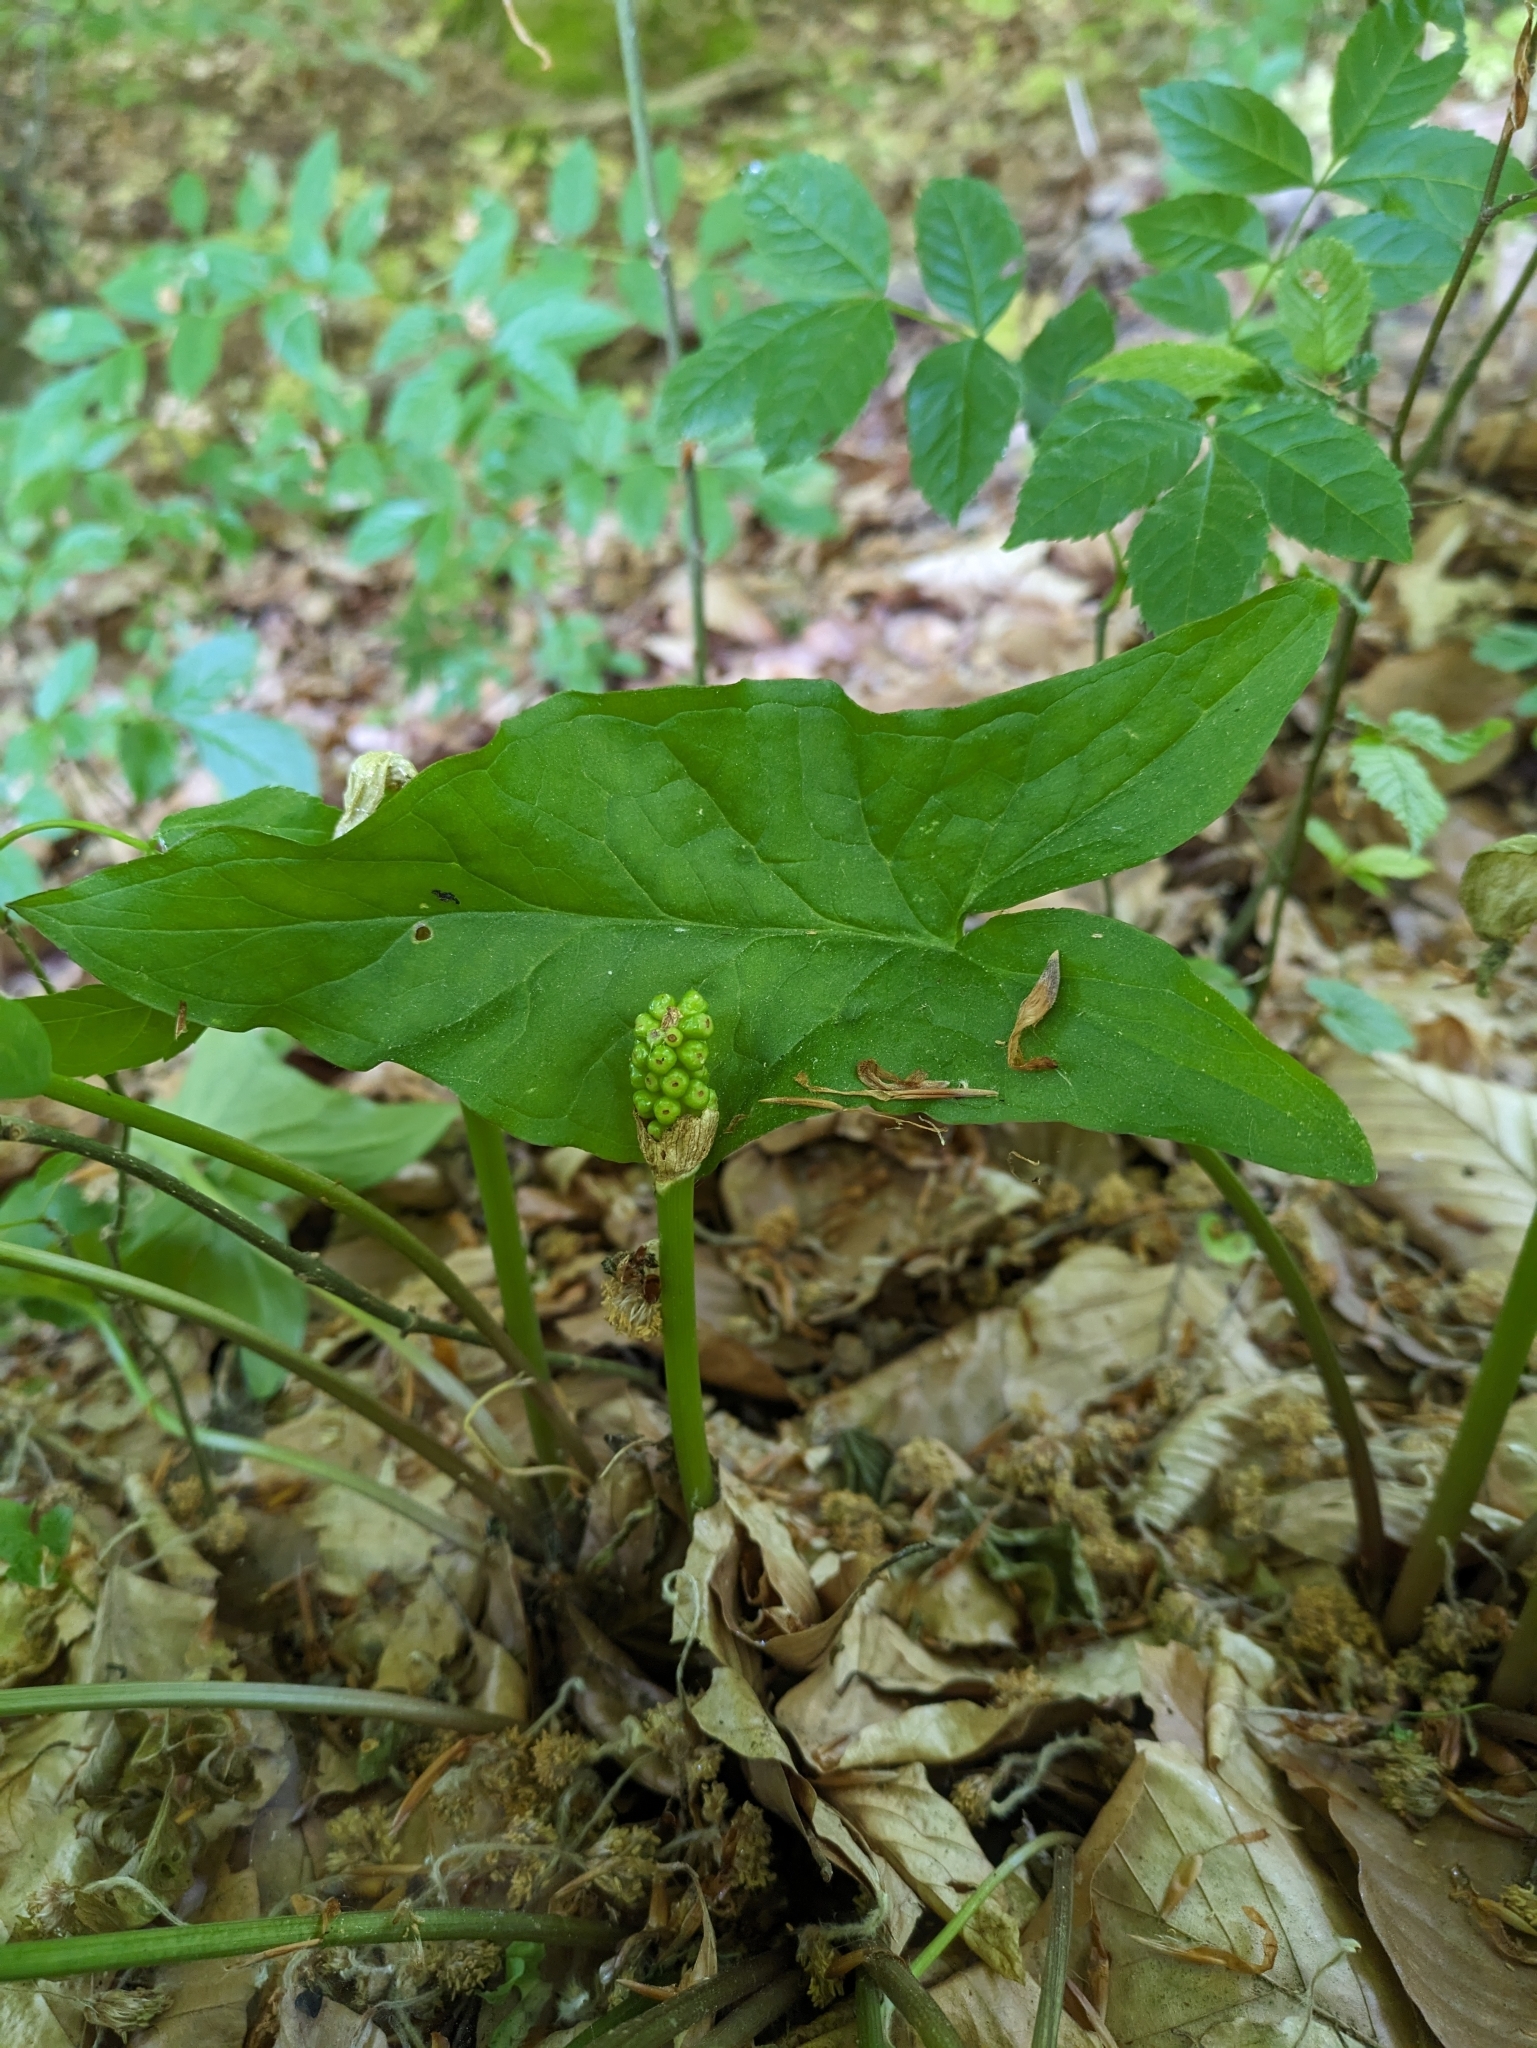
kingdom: Plantae
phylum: Tracheophyta
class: Liliopsida
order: Alismatales
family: Araceae
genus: Arum
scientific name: Arum maculatum
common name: Lords-and-ladies
